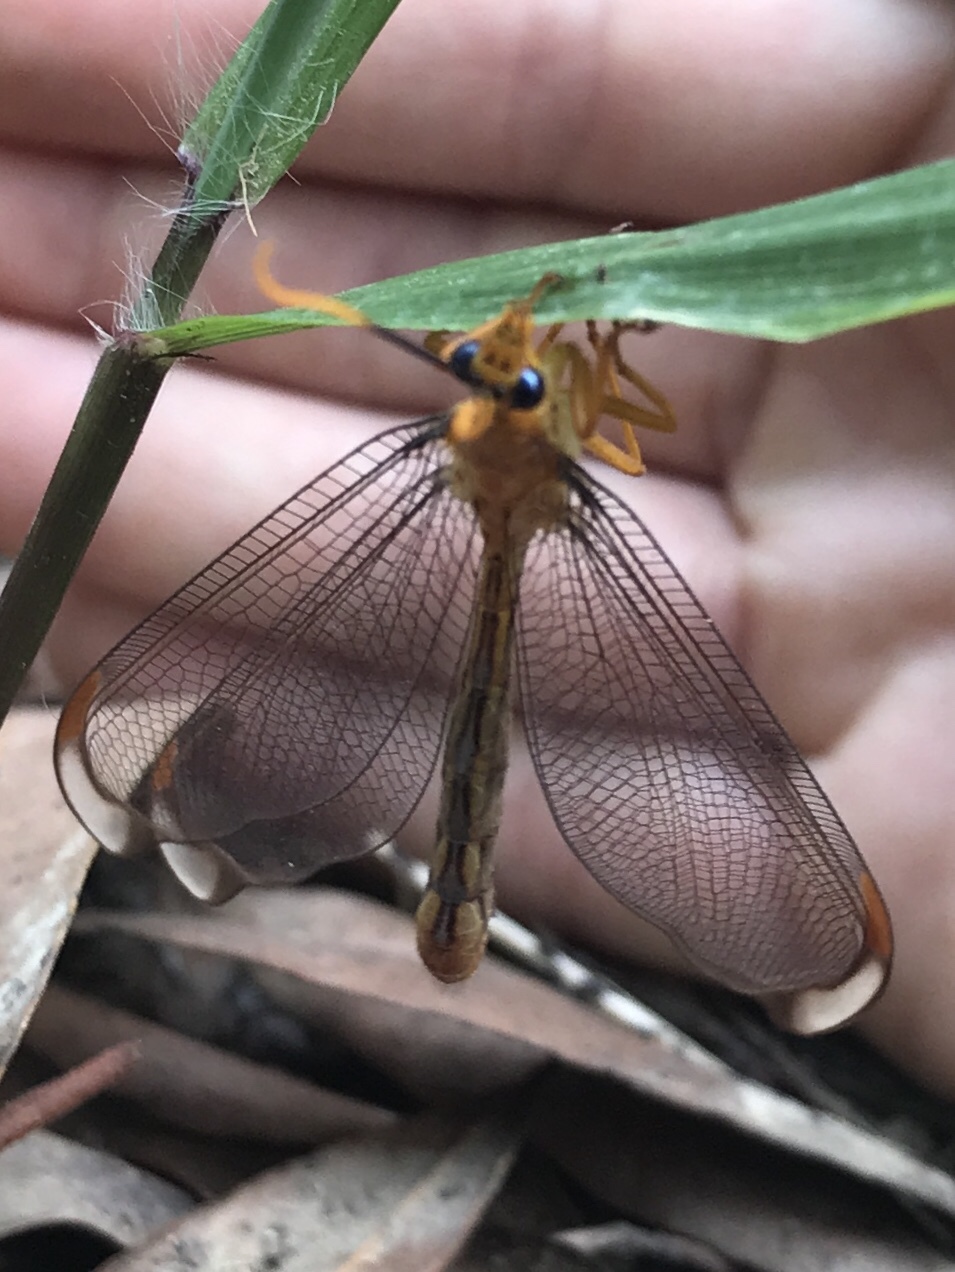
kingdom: Animalia
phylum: Arthropoda
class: Insecta
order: Neuroptera
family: Nymphidae
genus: Nymphes
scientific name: Nymphes myrmeleonoides
